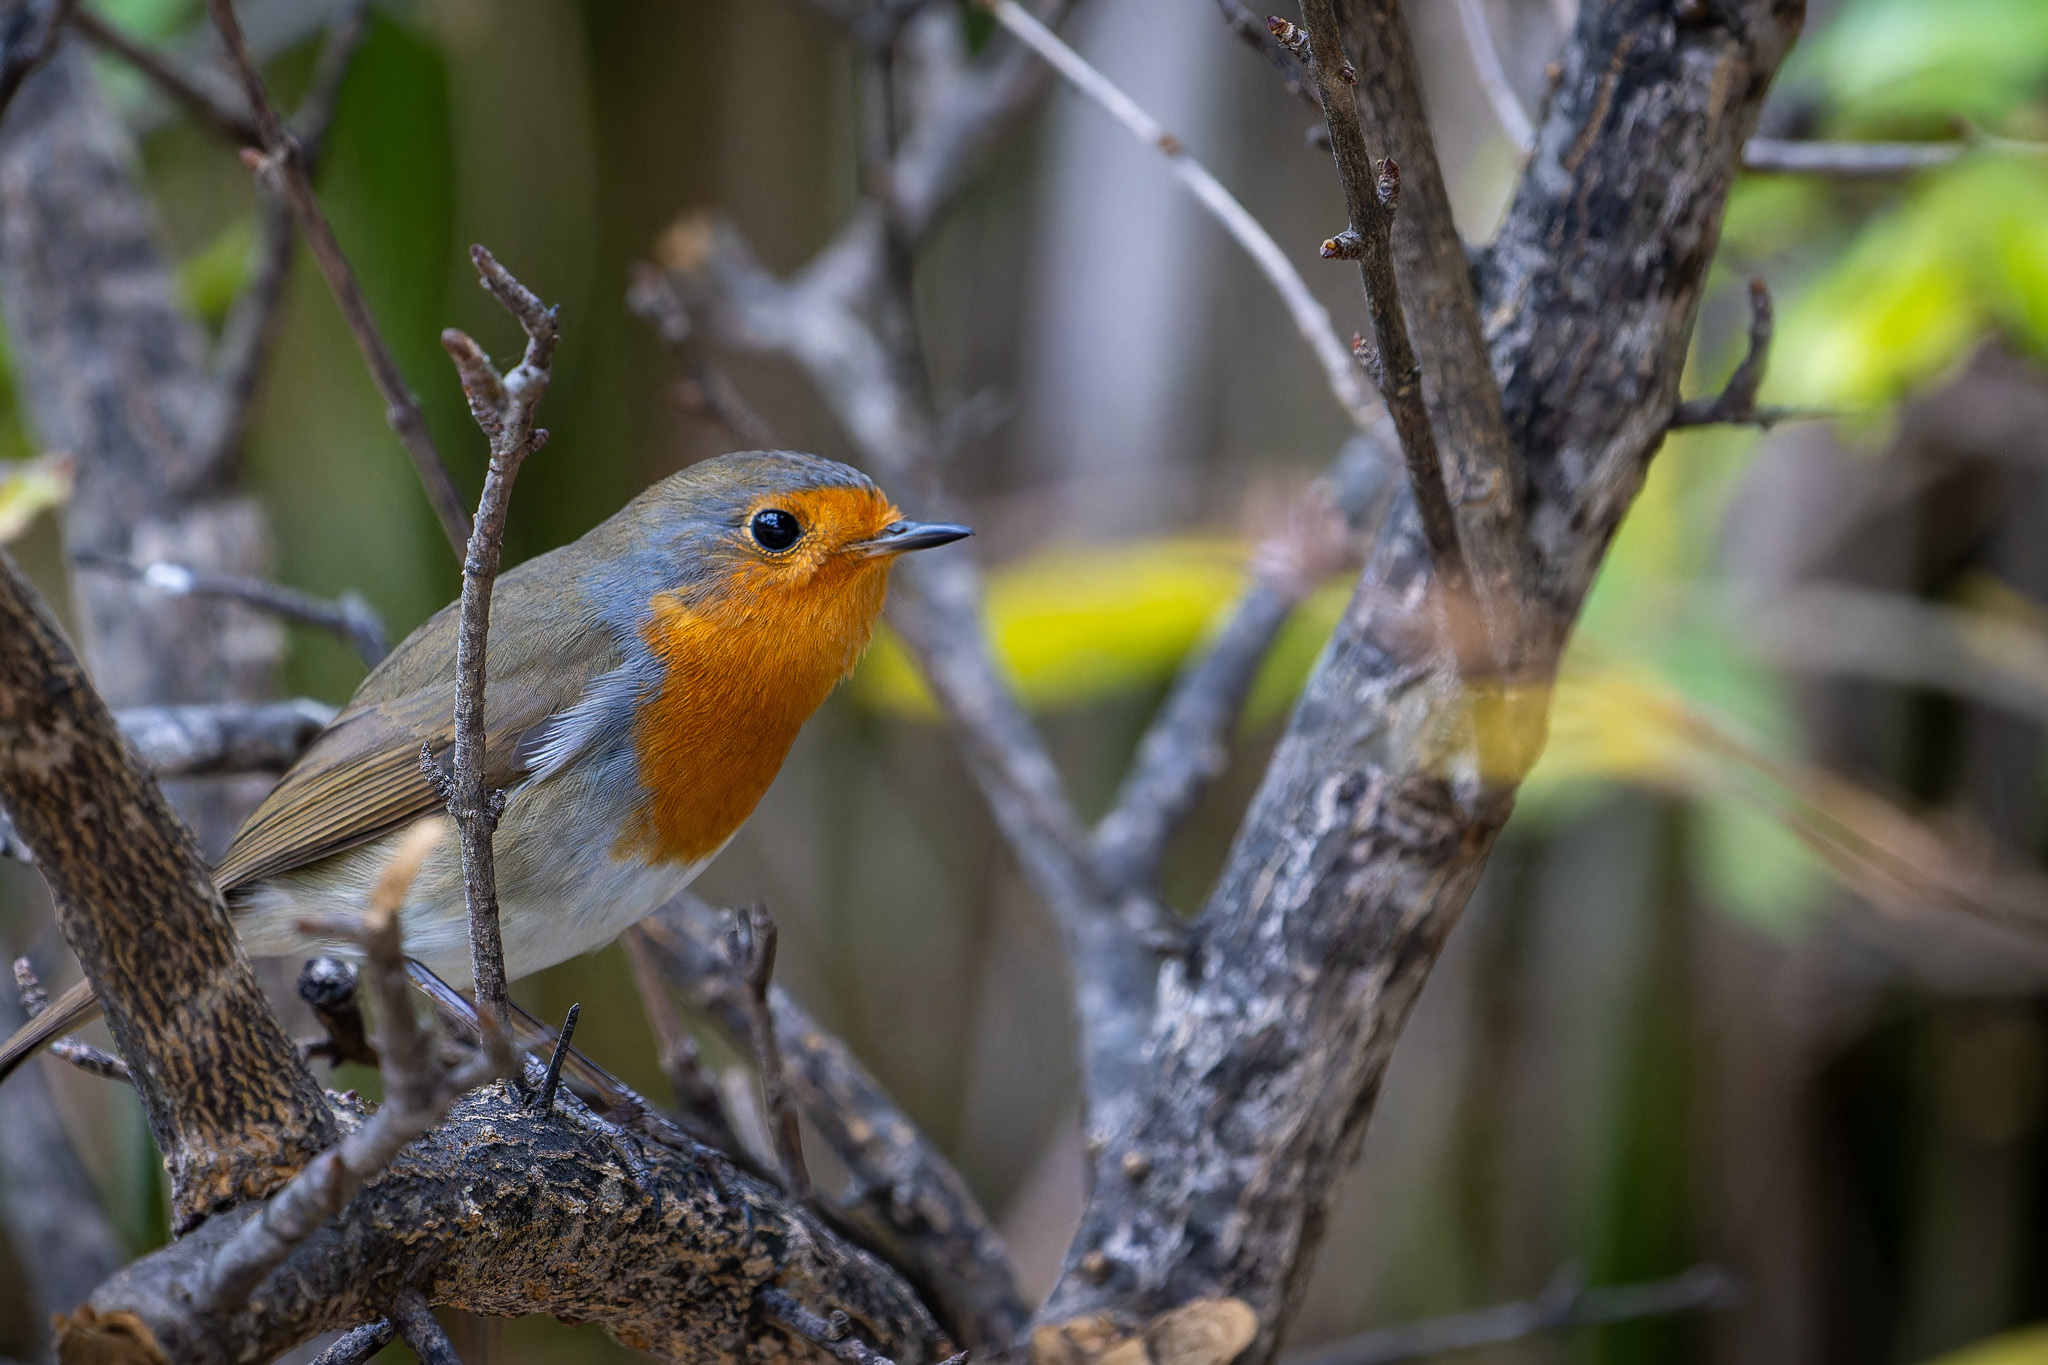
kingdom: Animalia
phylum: Chordata
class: Aves
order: Passeriformes
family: Muscicapidae
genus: Erithacus
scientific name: Erithacus rubecula
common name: European robin
